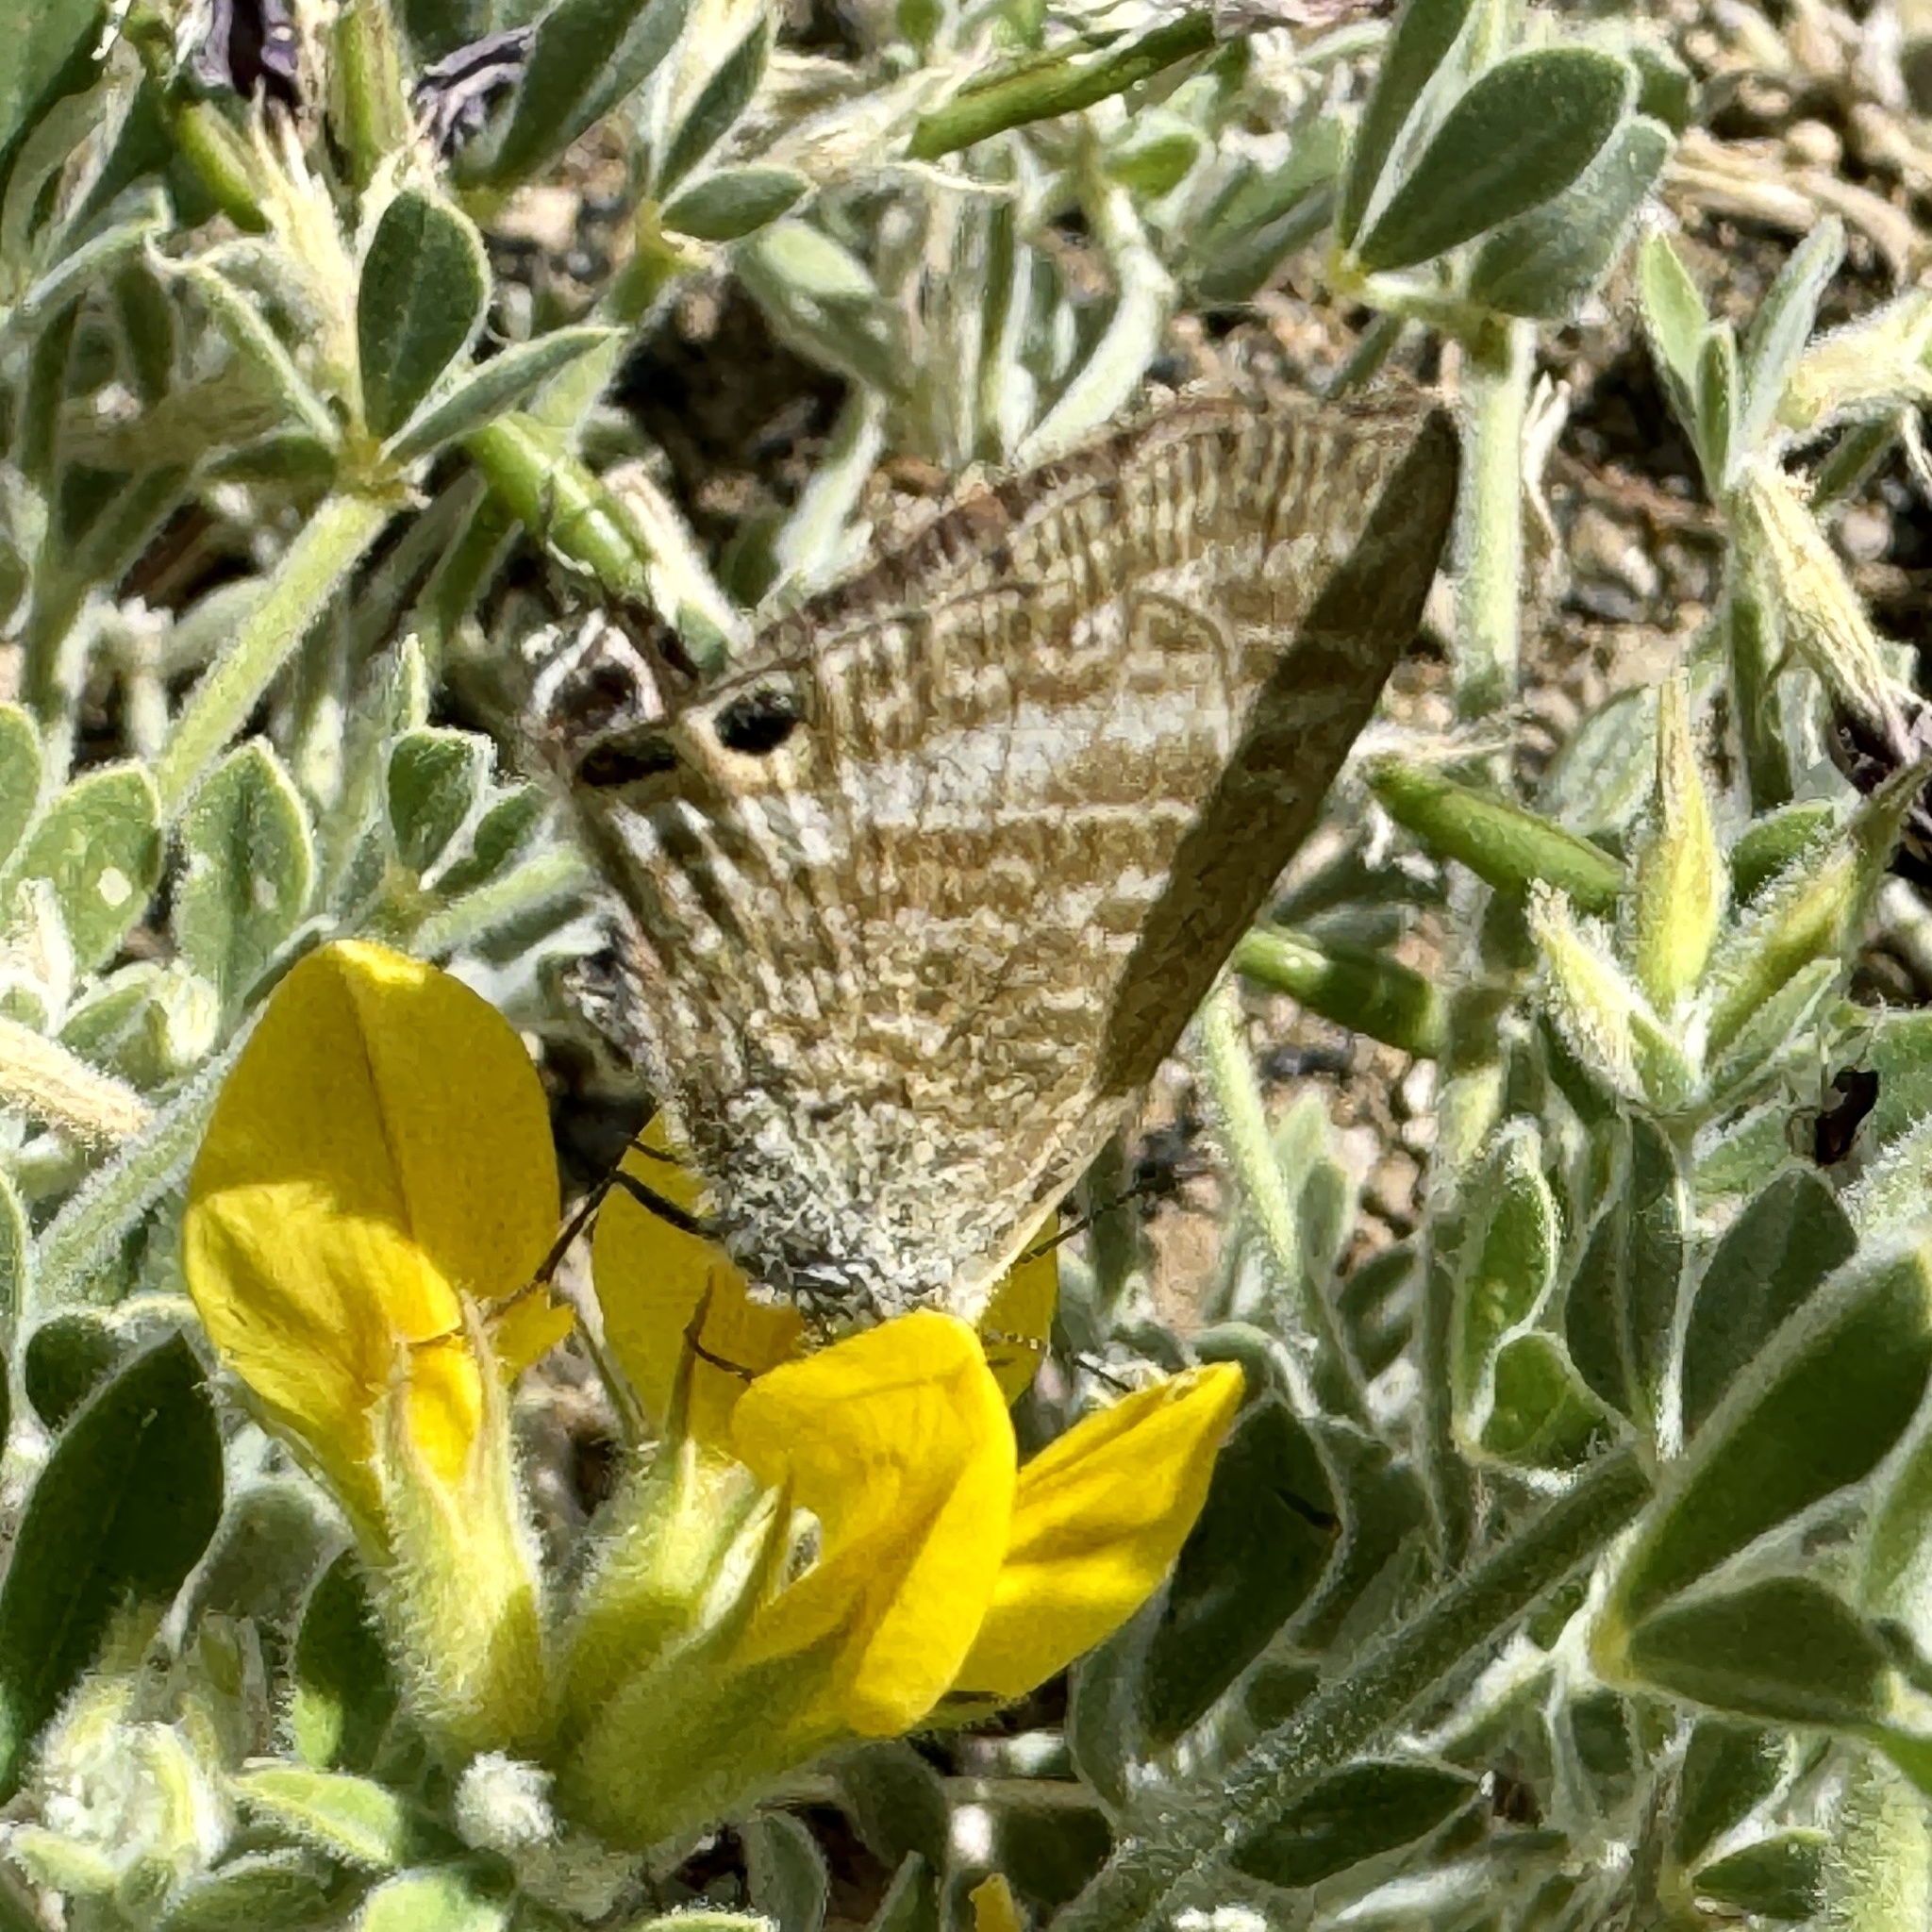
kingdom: Animalia
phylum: Arthropoda
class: Insecta
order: Lepidoptera
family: Lycaenidae
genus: Lampides
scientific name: Lampides boeticus
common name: Long-tailed blue
